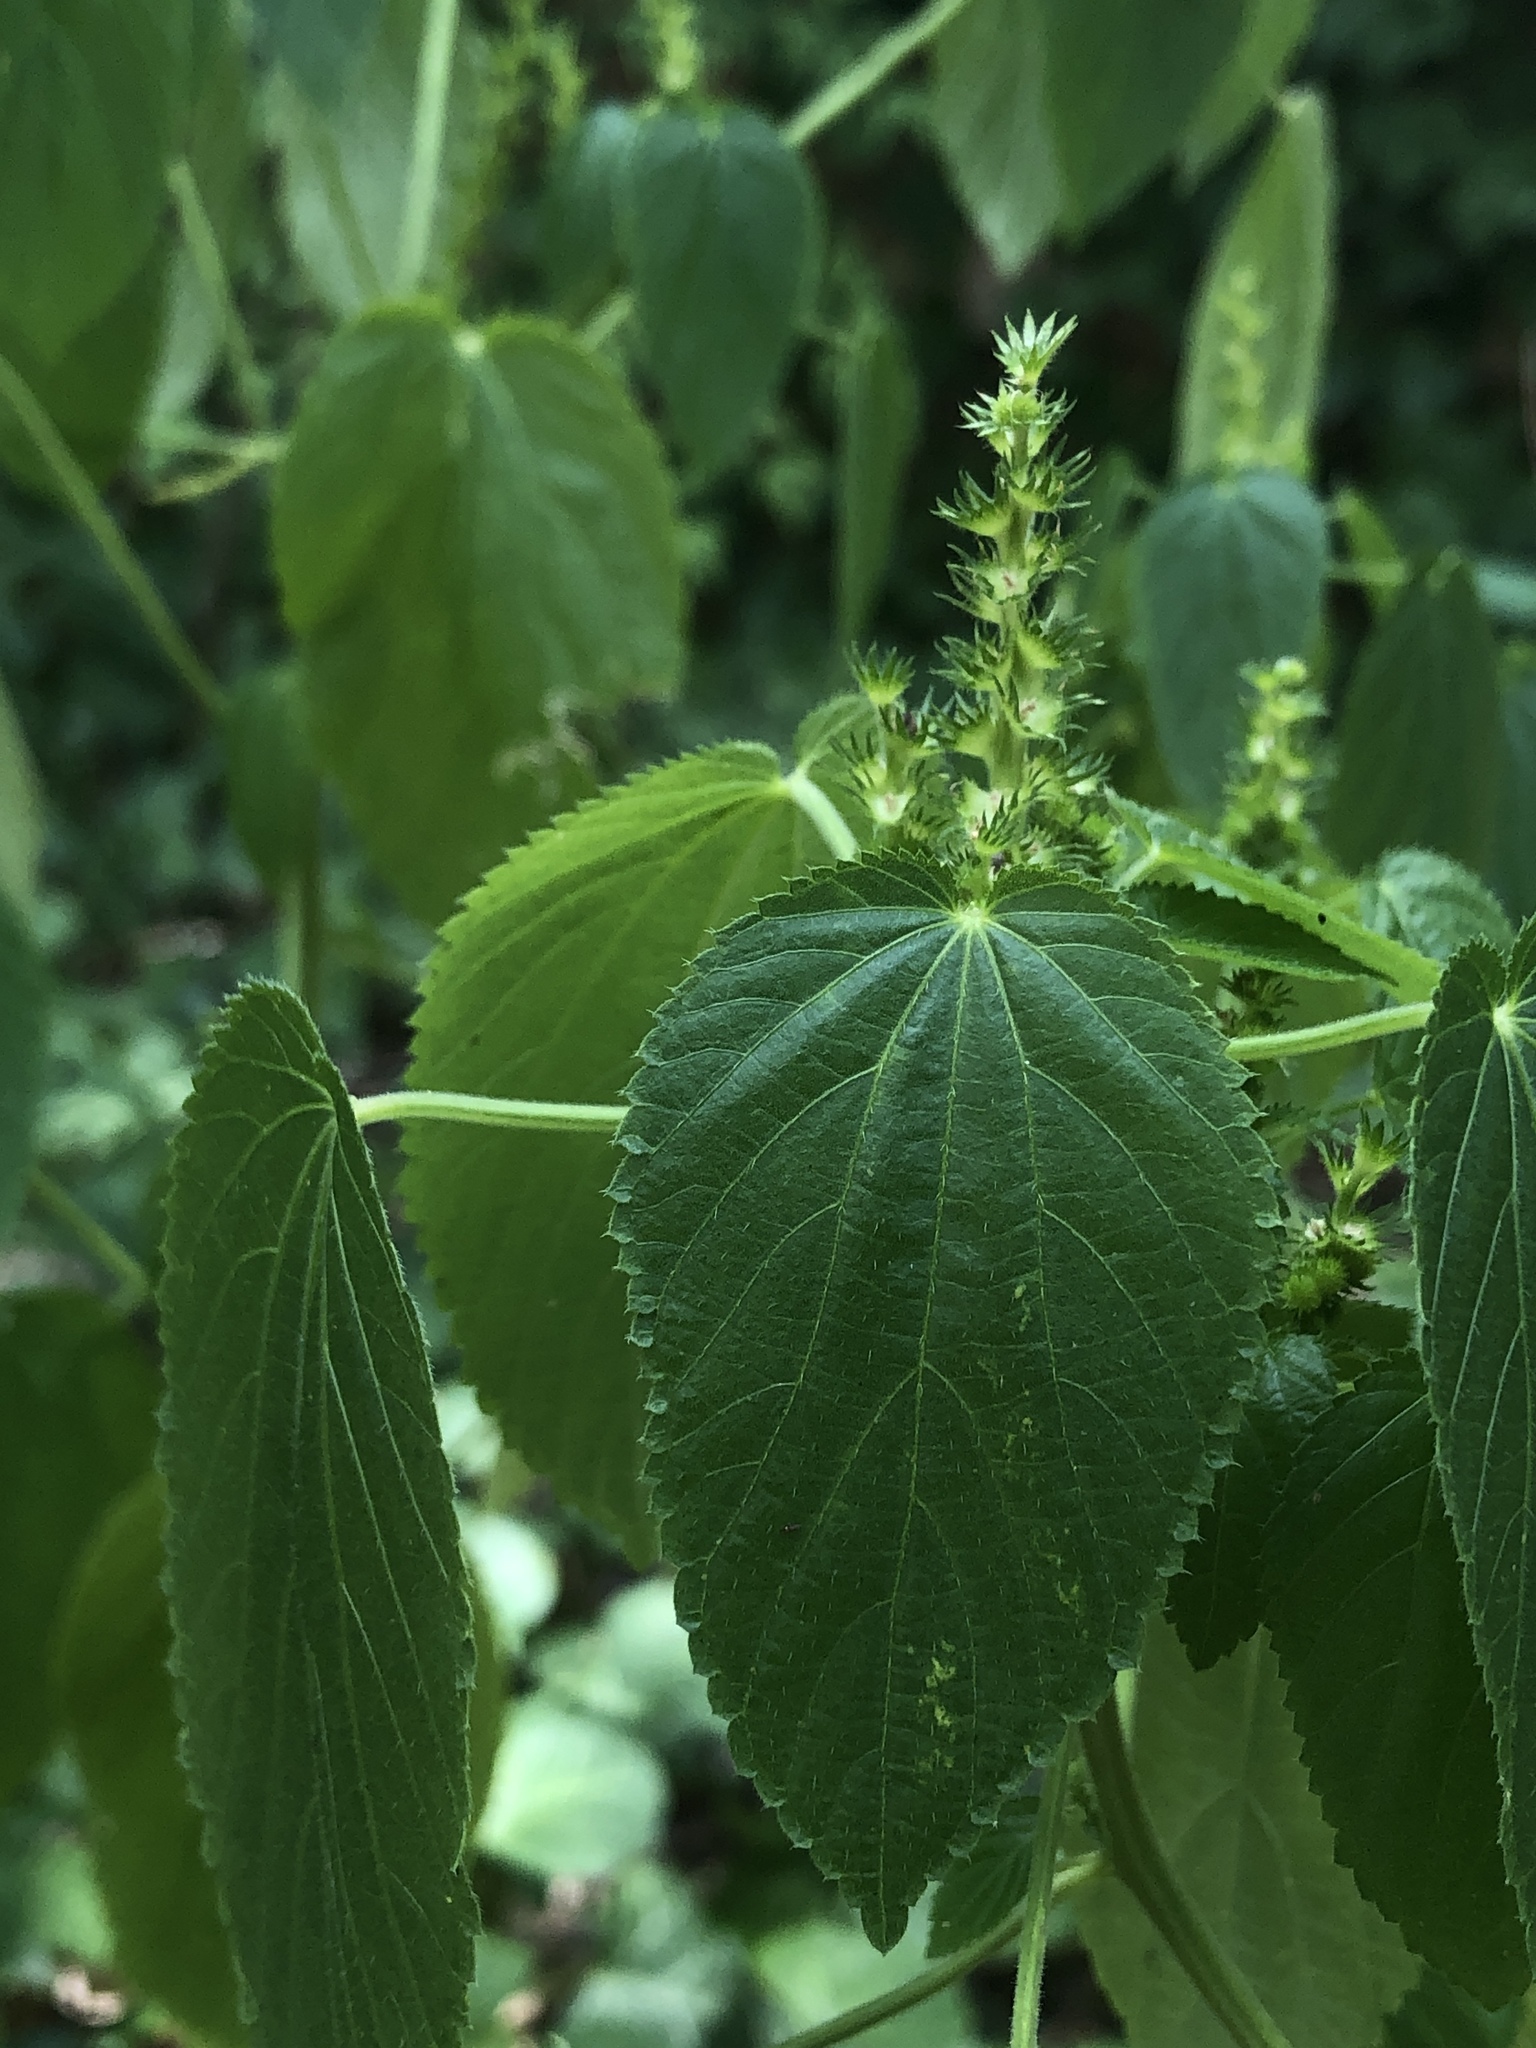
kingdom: Plantae
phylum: Tracheophyta
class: Magnoliopsida
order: Malpighiales
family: Euphorbiaceae
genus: Acalypha
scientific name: Acalypha ostryifolia
